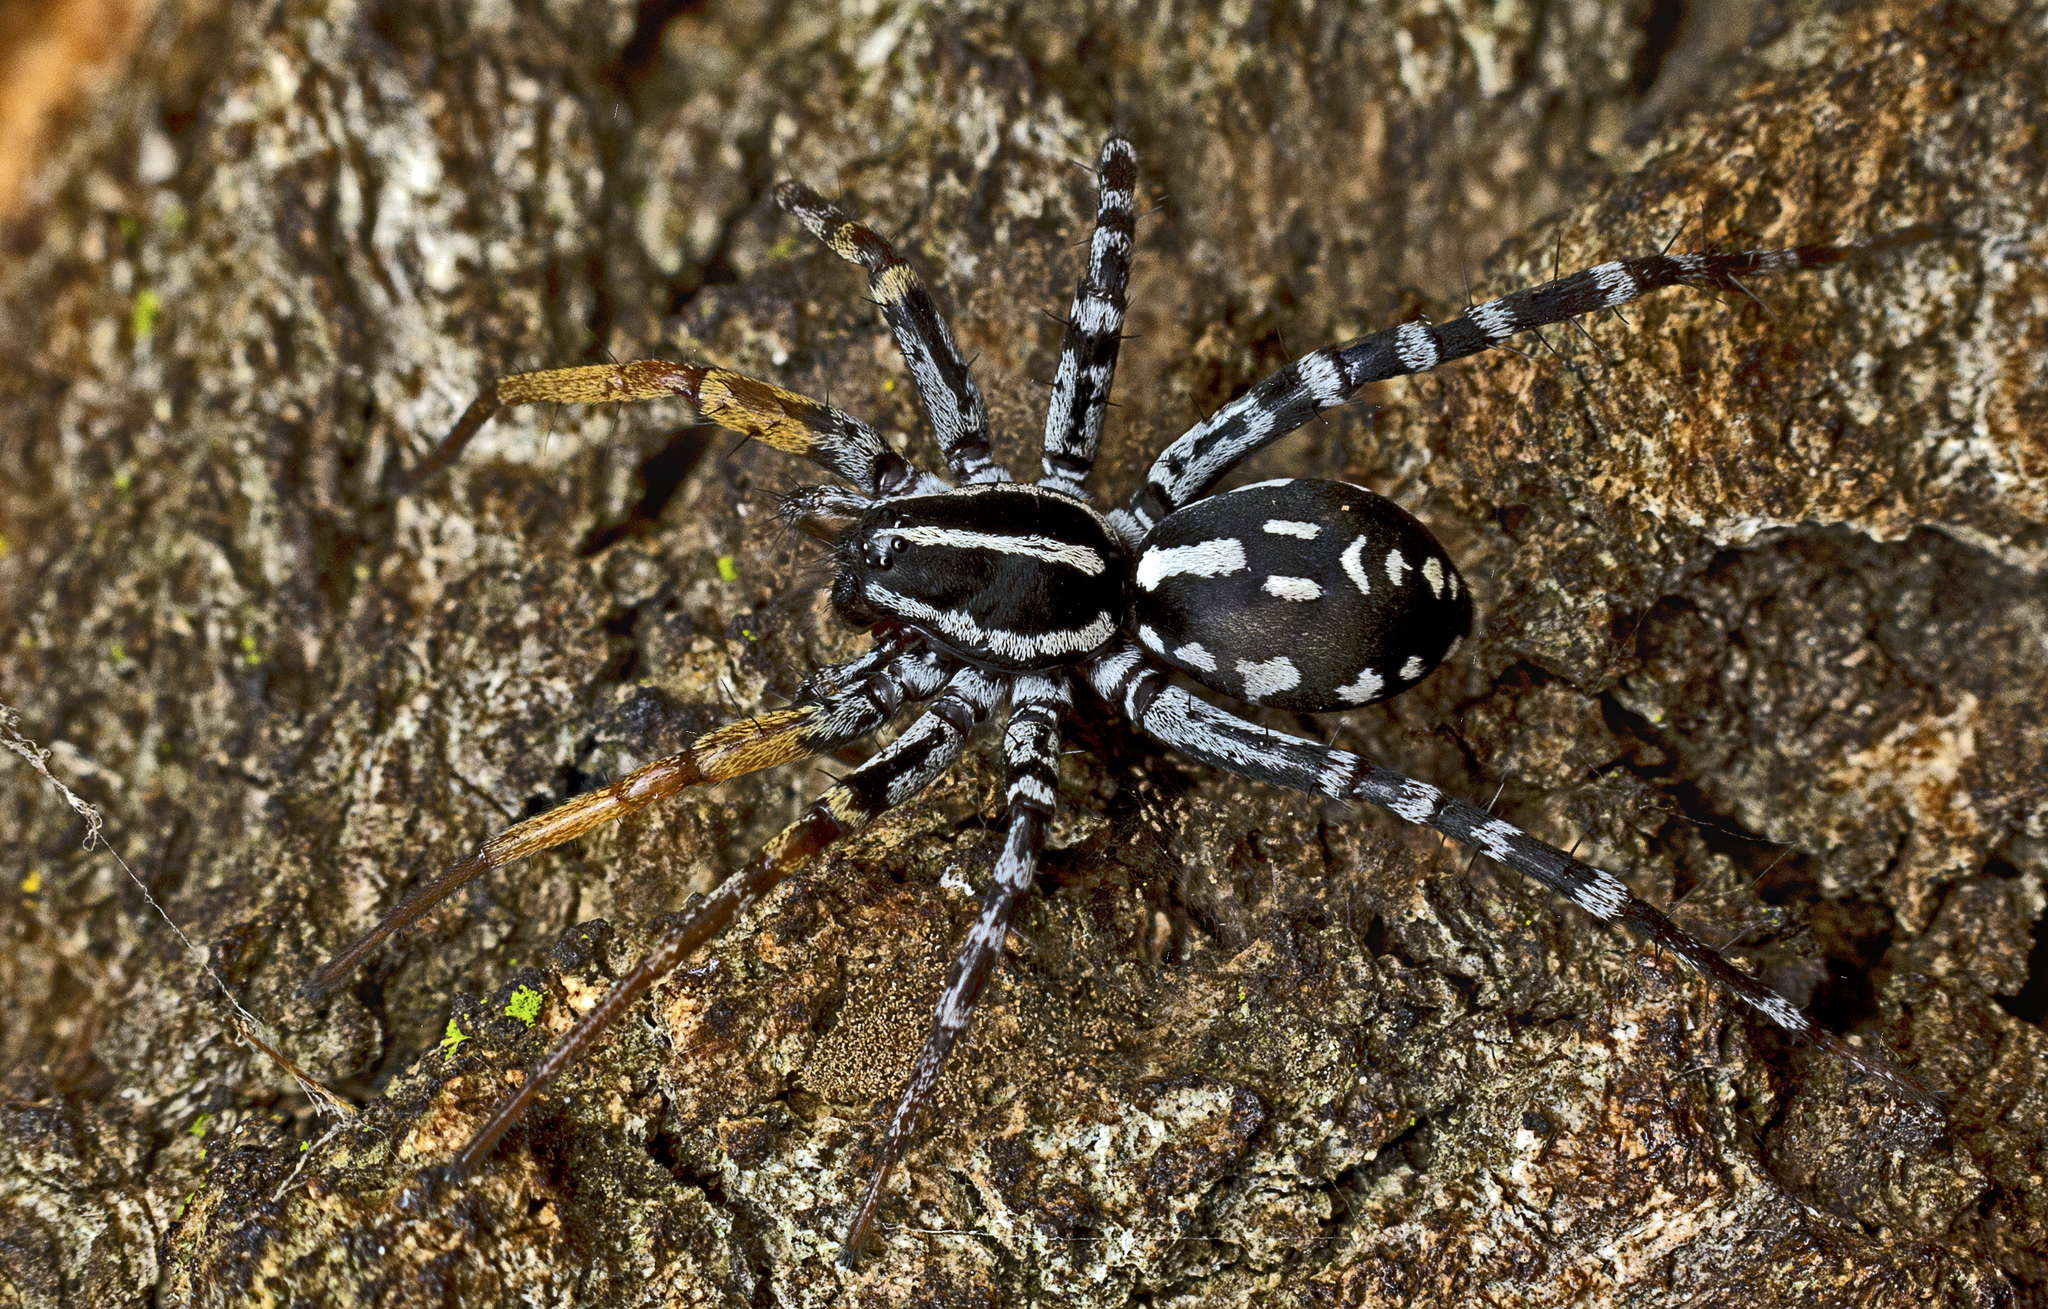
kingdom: Animalia
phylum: Arthropoda
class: Arachnida
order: Araneae
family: Corinnidae
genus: Nyssus
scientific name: Nyssus coloripes
